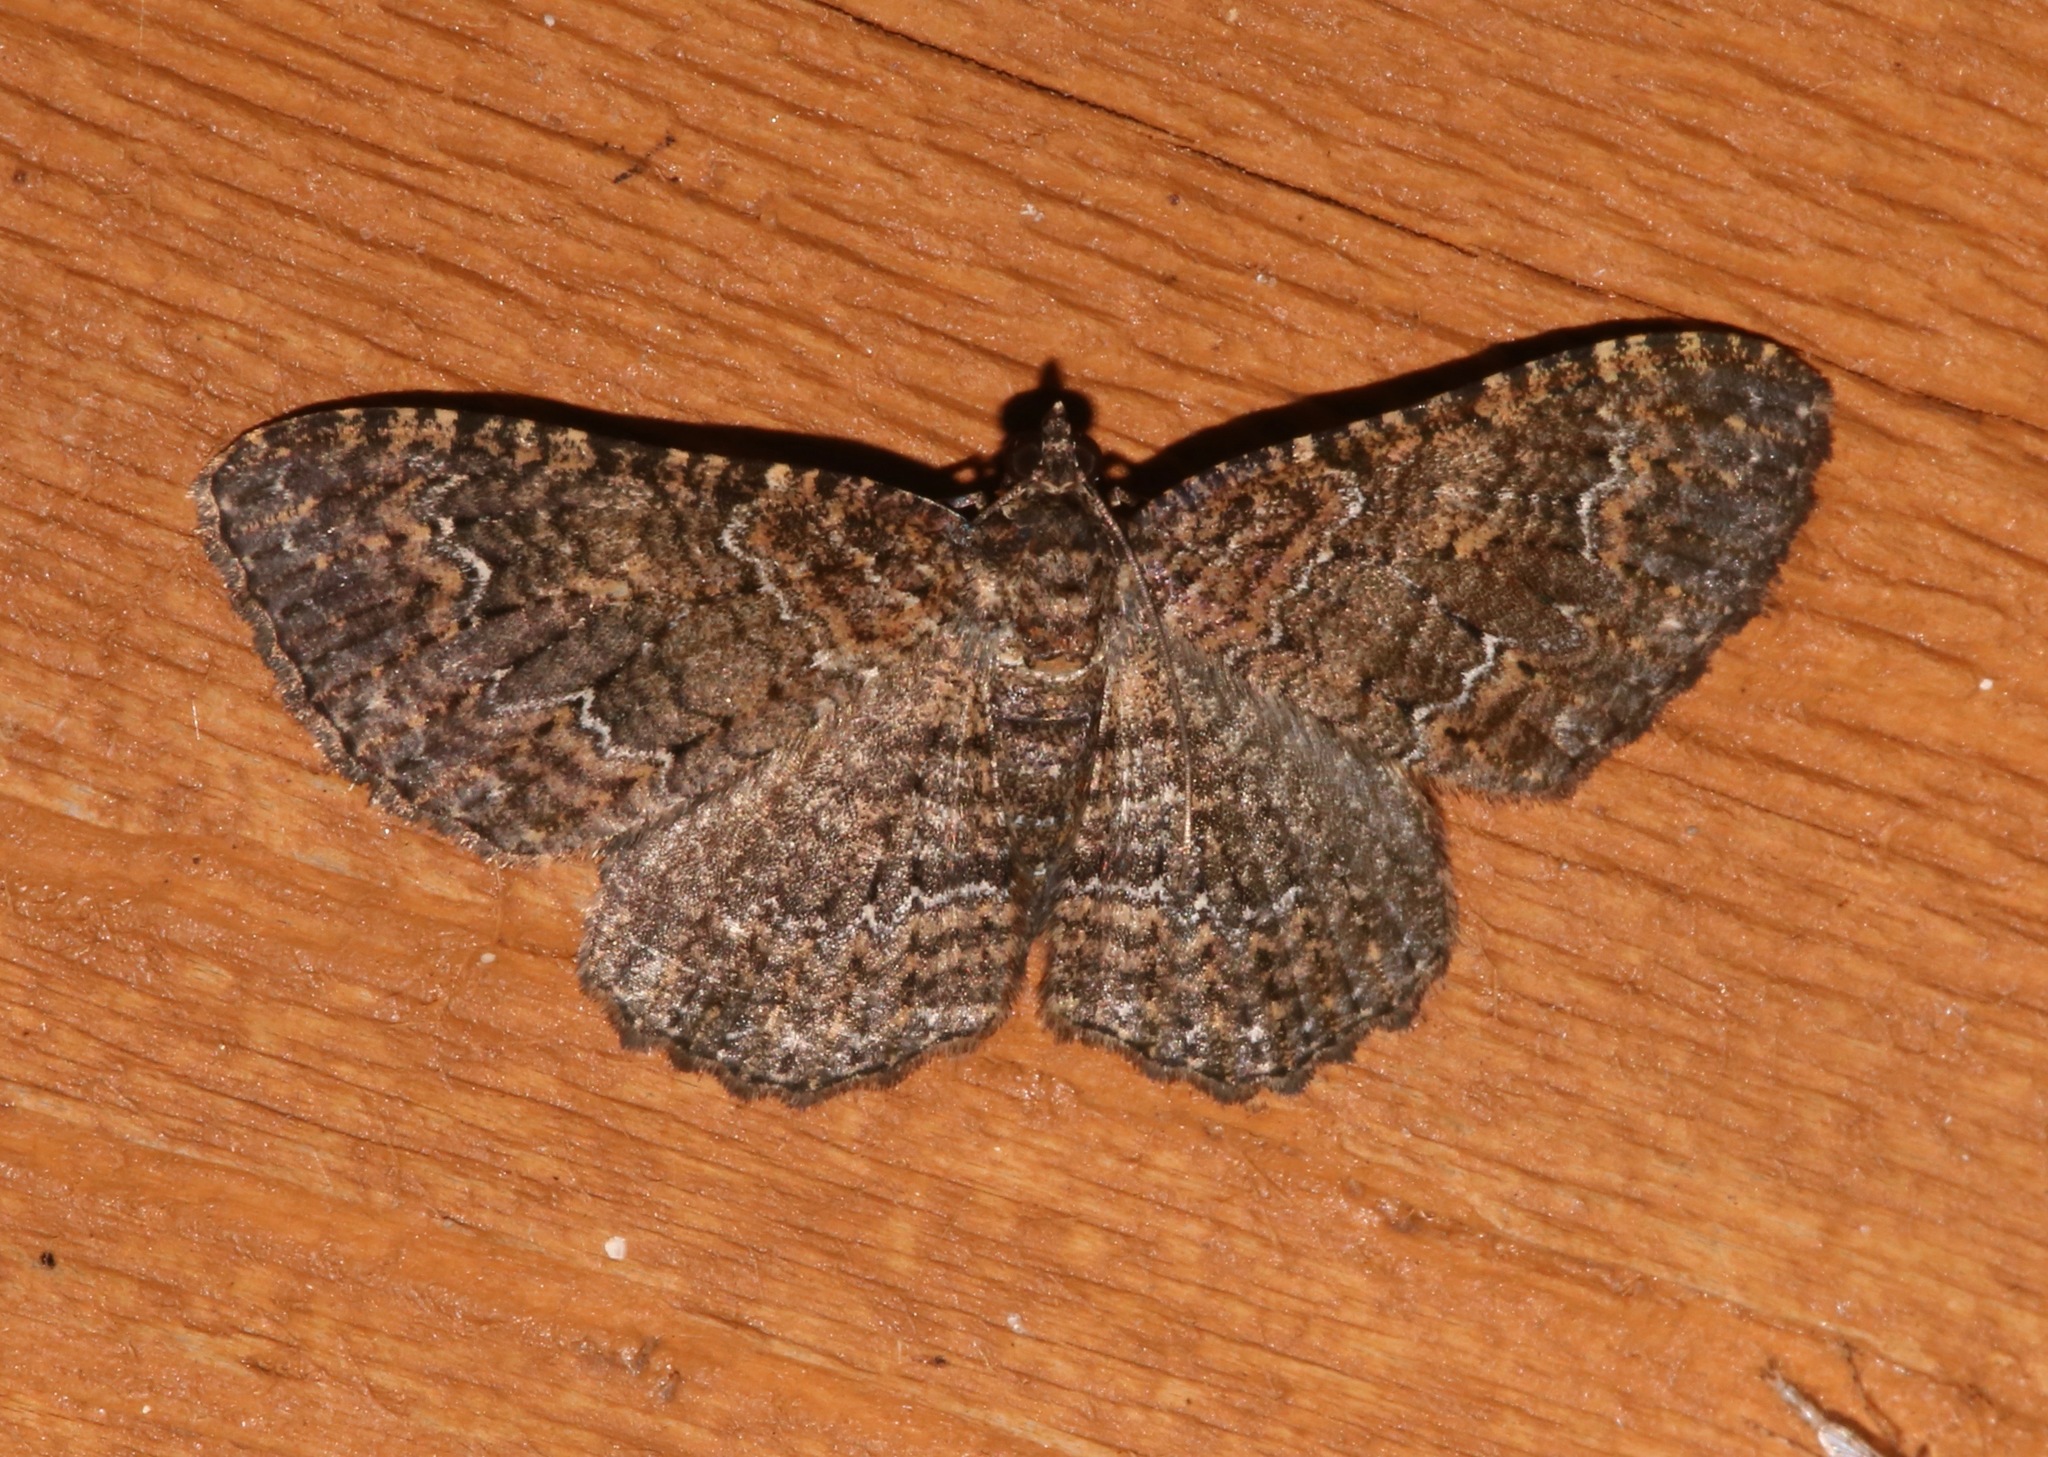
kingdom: Animalia
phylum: Arthropoda
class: Insecta
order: Lepidoptera
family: Geometridae
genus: Disclisioprocta
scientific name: Disclisioprocta stellata
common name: Somber carpet
